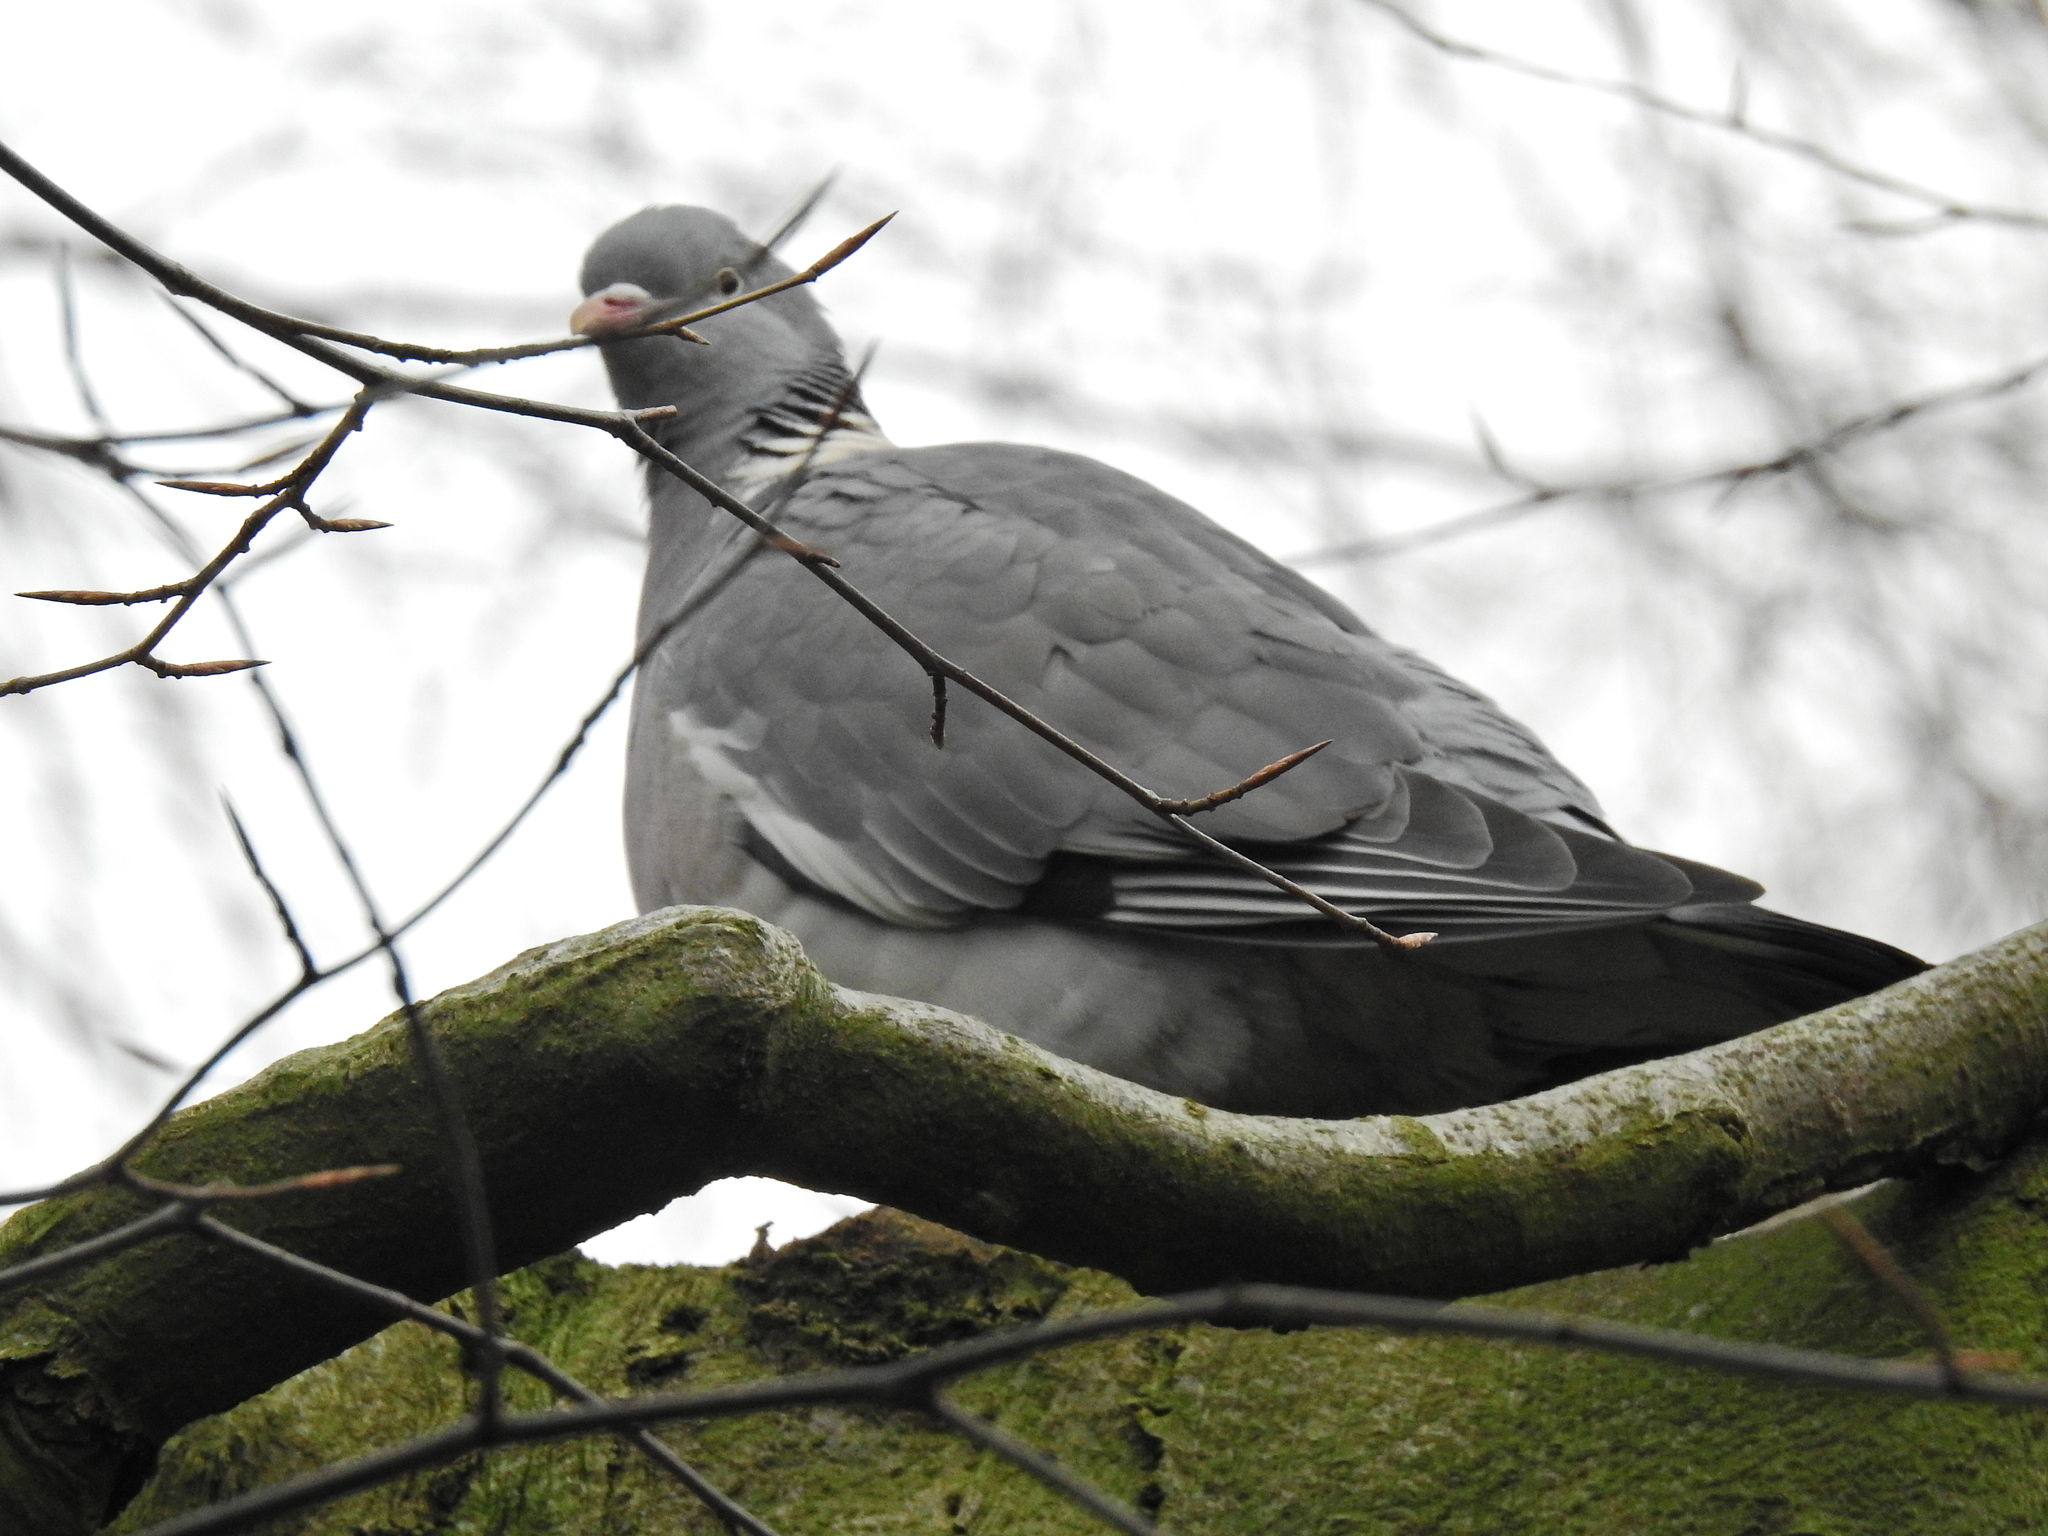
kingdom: Animalia
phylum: Chordata
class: Aves
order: Columbiformes
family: Columbidae
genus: Columba
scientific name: Columba palumbus
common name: Common wood pigeon
